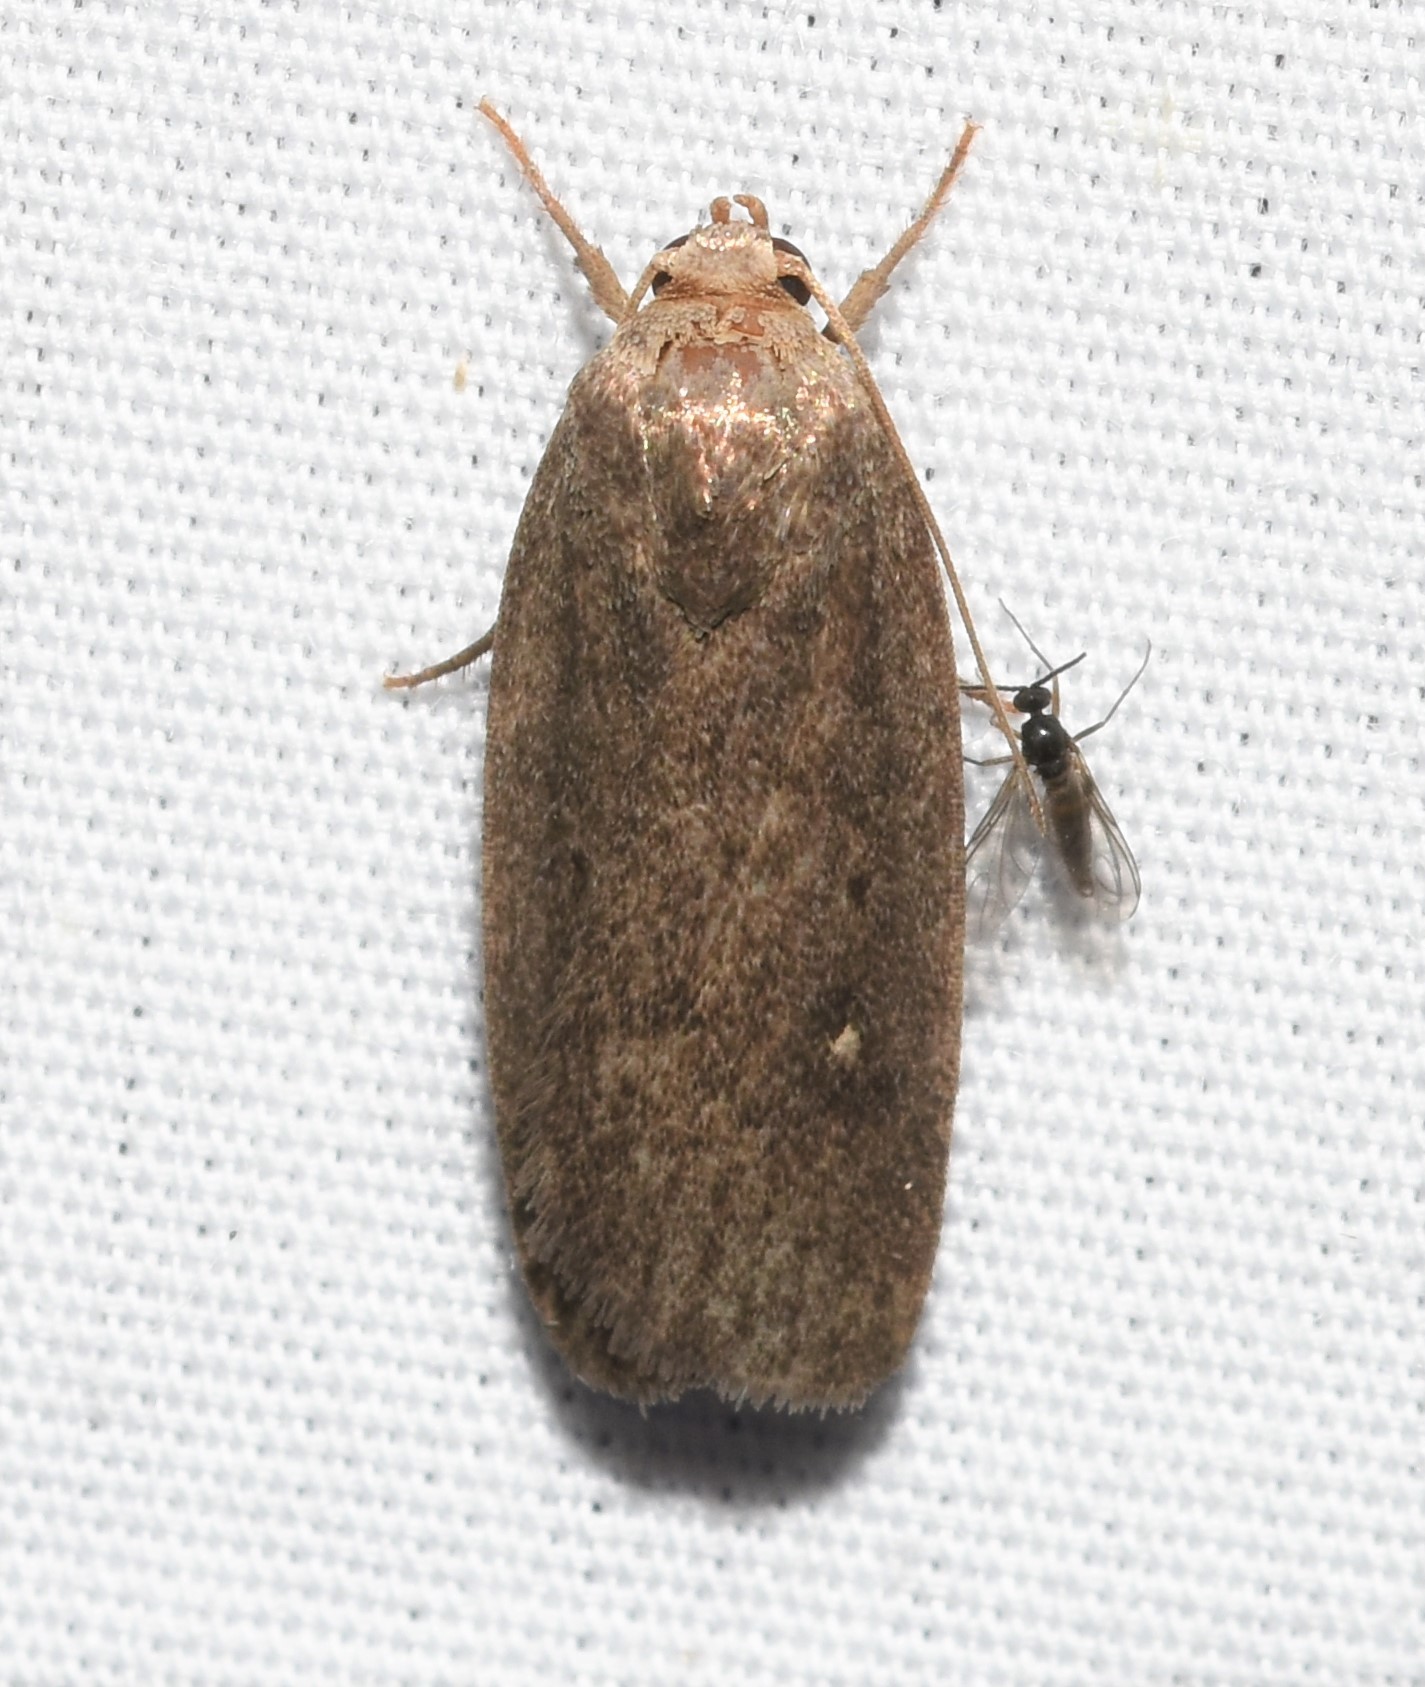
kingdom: Animalia
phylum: Arthropoda
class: Insecta
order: Lepidoptera
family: Noctuidae
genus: Proxenus
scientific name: Proxenus miranda
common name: Miranda moth
